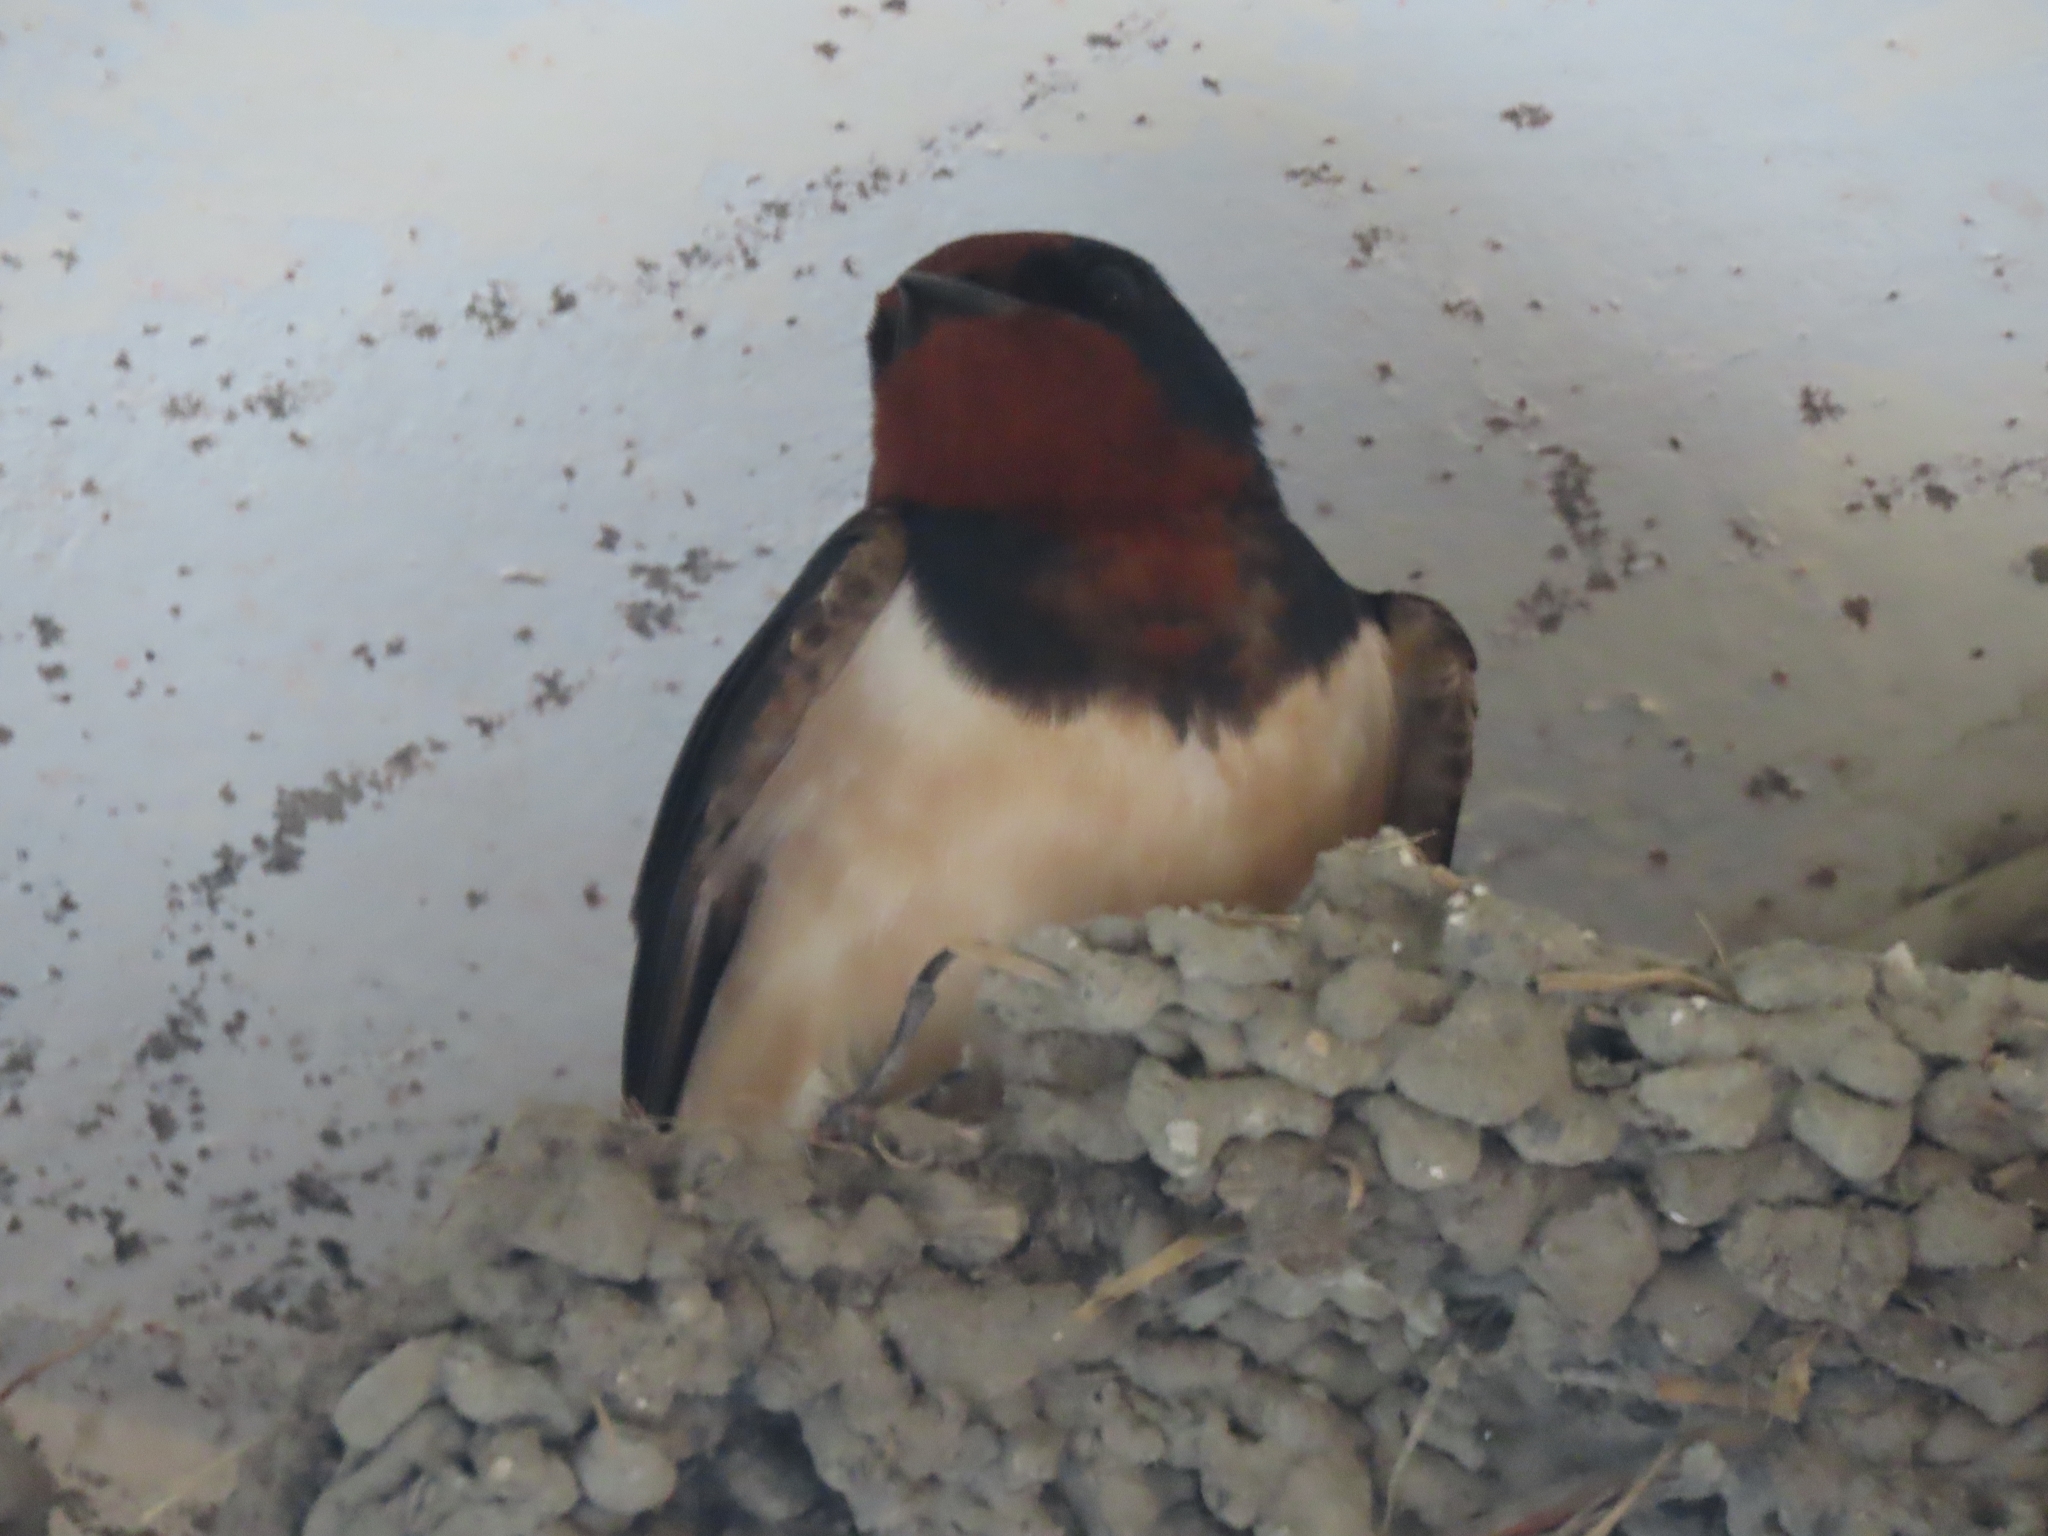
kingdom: Animalia
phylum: Chordata
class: Aves
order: Passeriformes
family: Hirundinidae
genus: Hirundo
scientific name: Hirundo rustica
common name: Barn swallow
